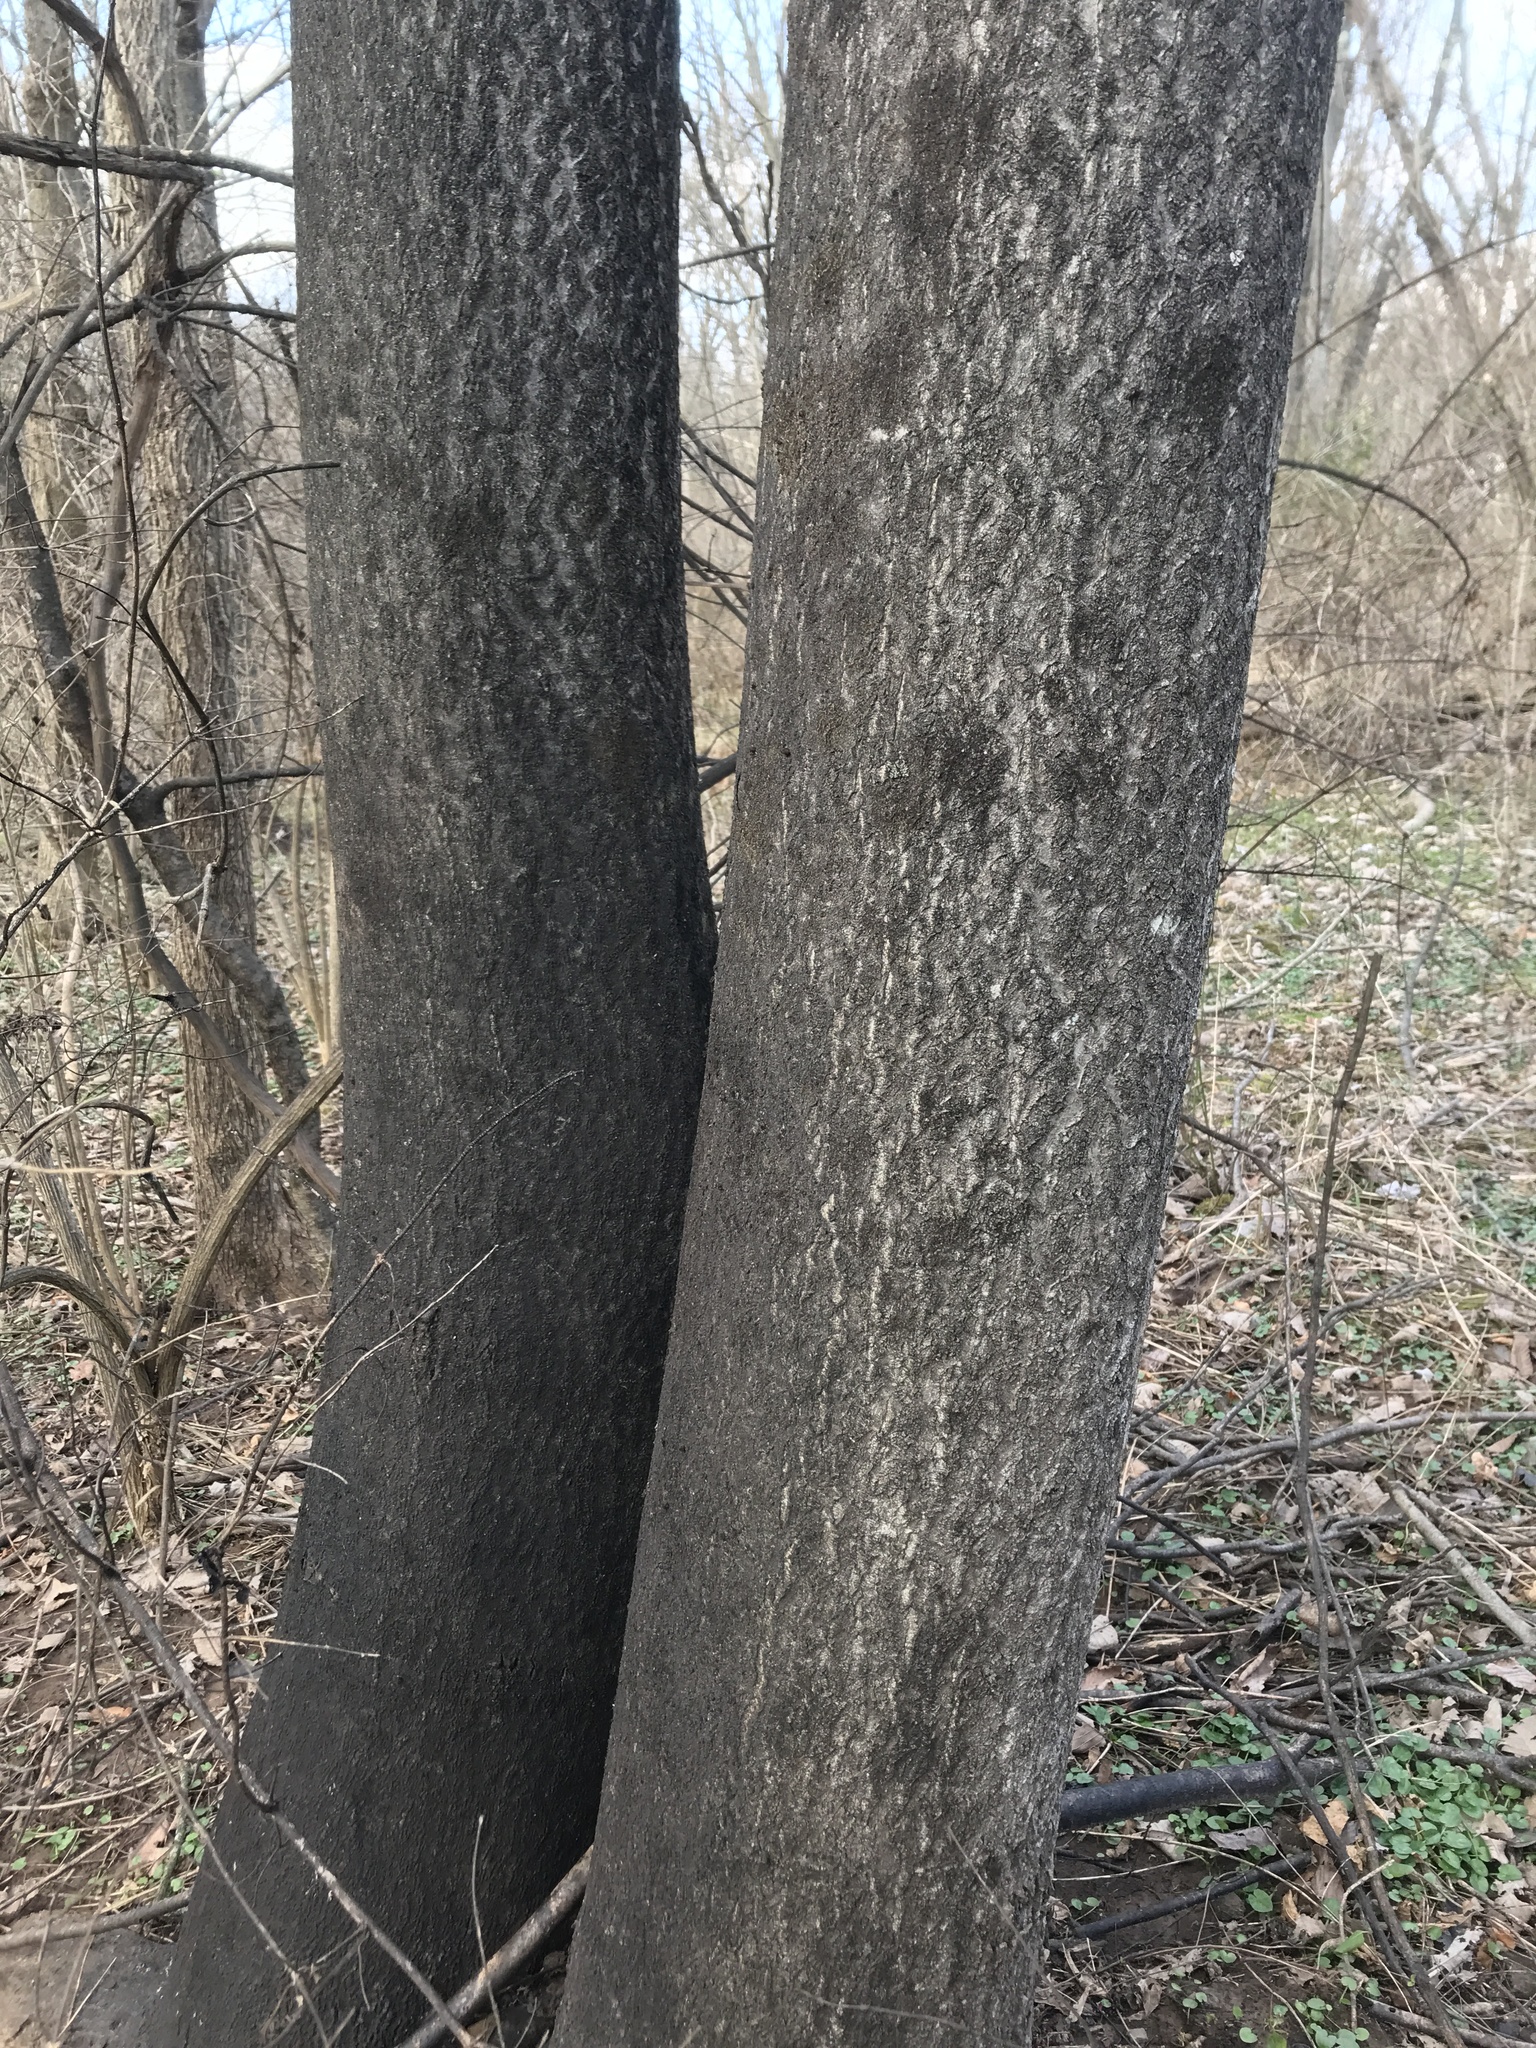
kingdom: Plantae
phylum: Tracheophyta
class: Magnoliopsida
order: Sapindales
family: Simaroubaceae
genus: Ailanthus
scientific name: Ailanthus altissima
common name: Tree-of-heaven
